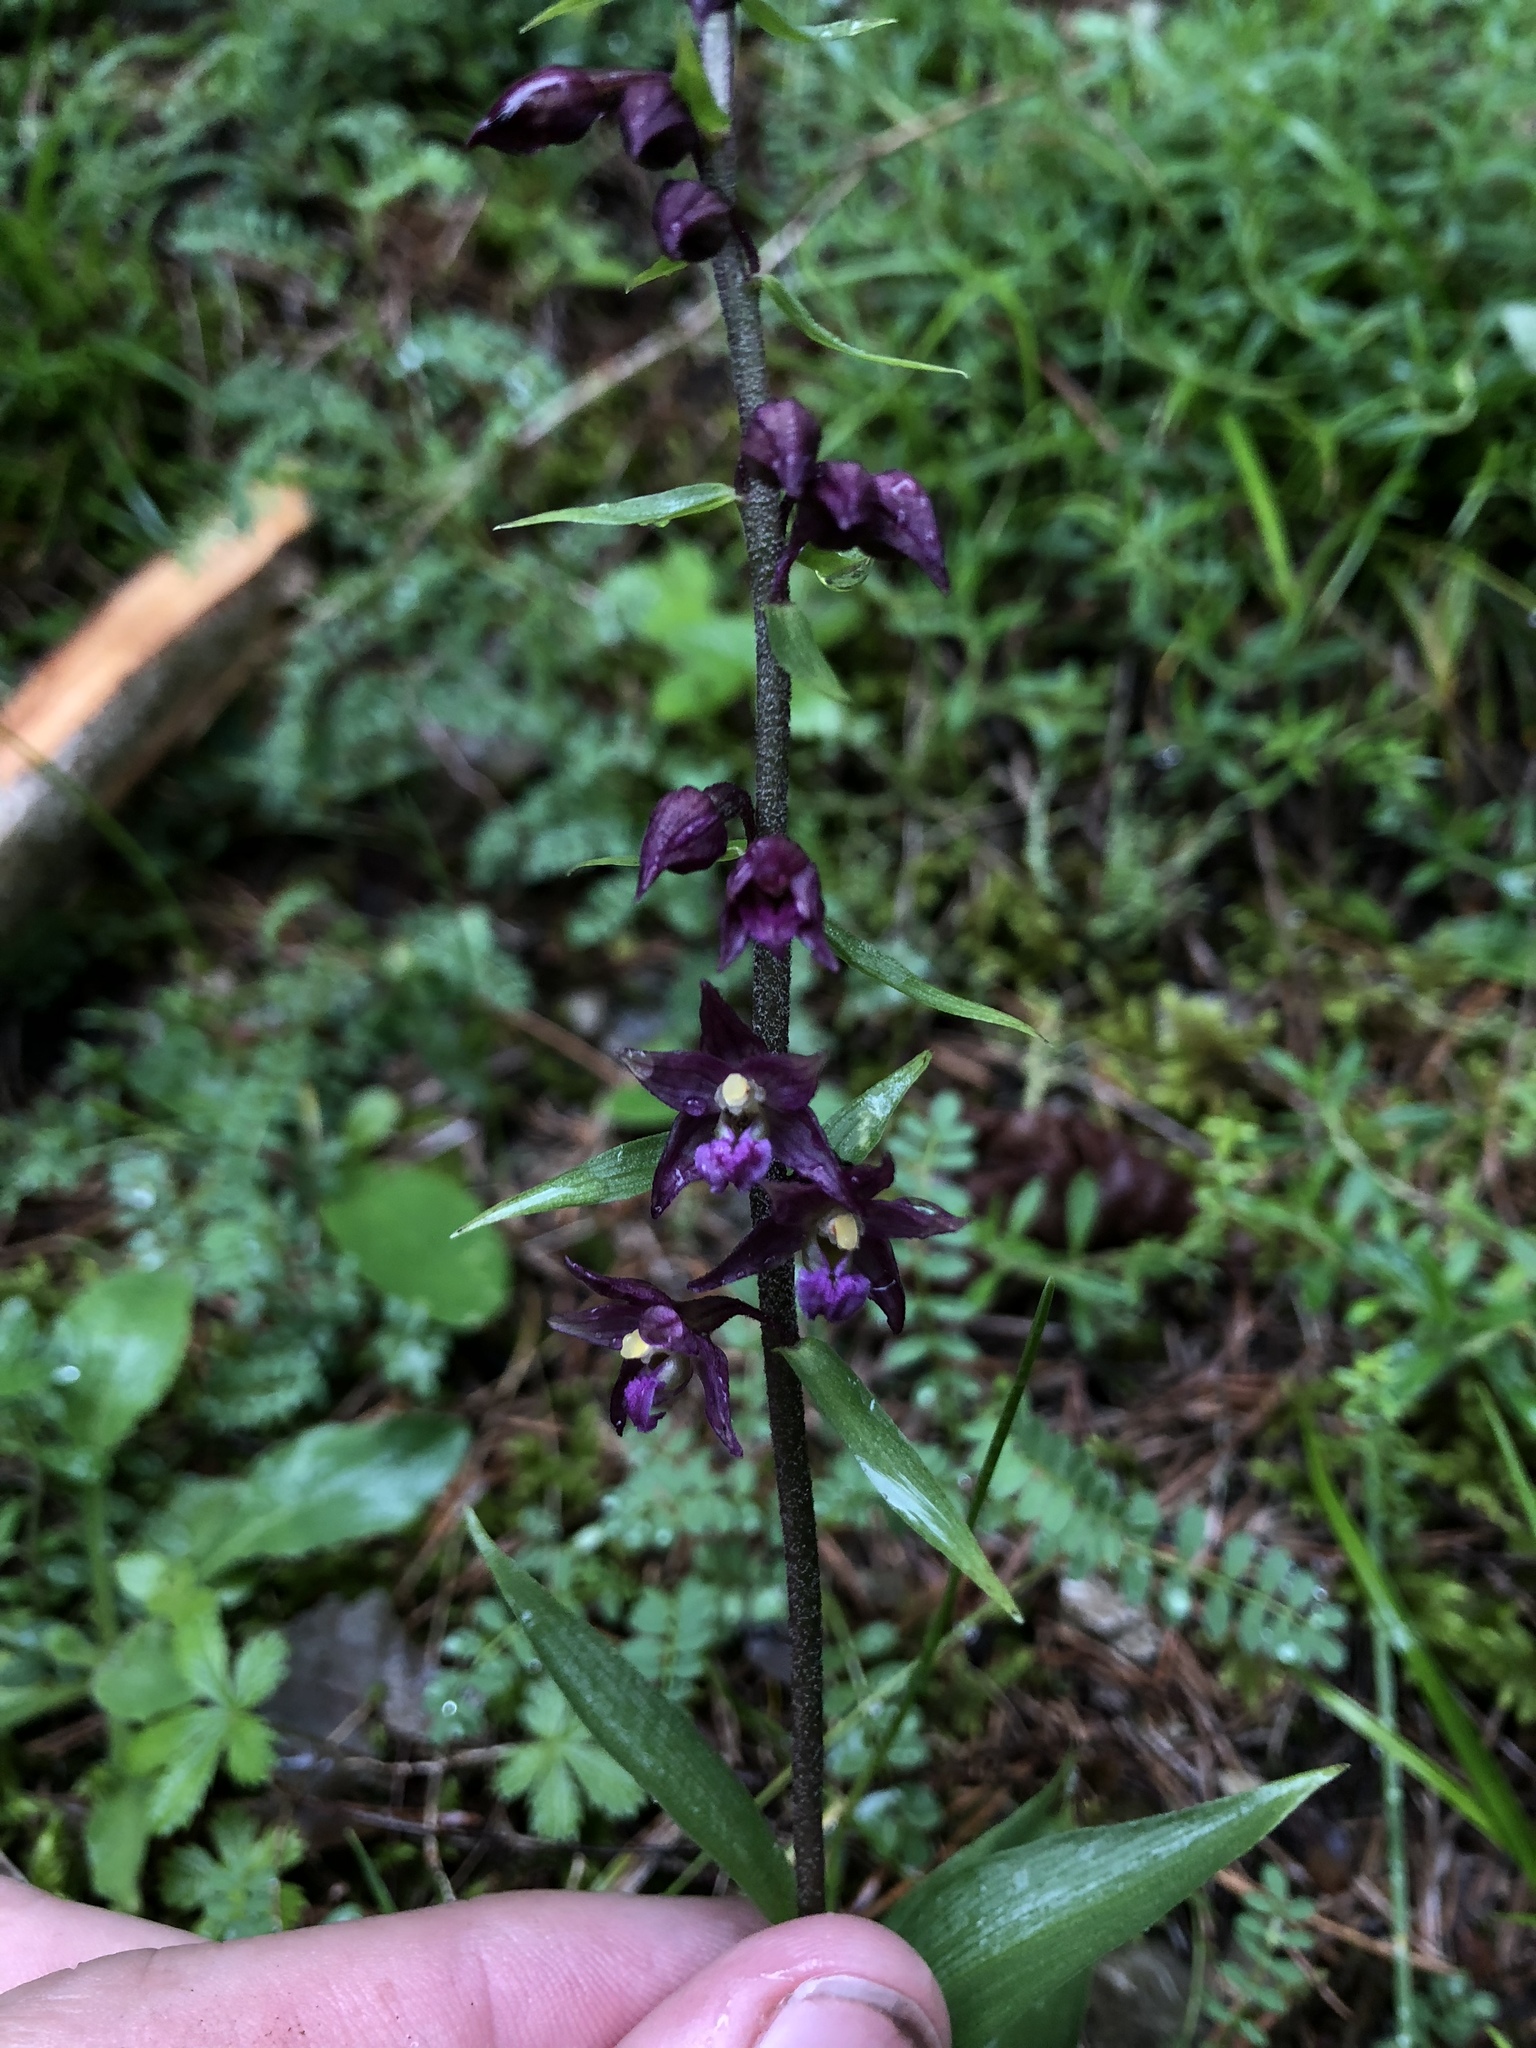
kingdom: Plantae
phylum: Tracheophyta
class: Liliopsida
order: Asparagales
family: Orchidaceae
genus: Epipactis
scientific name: Epipactis atrorubens
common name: Dark-red helleborine
